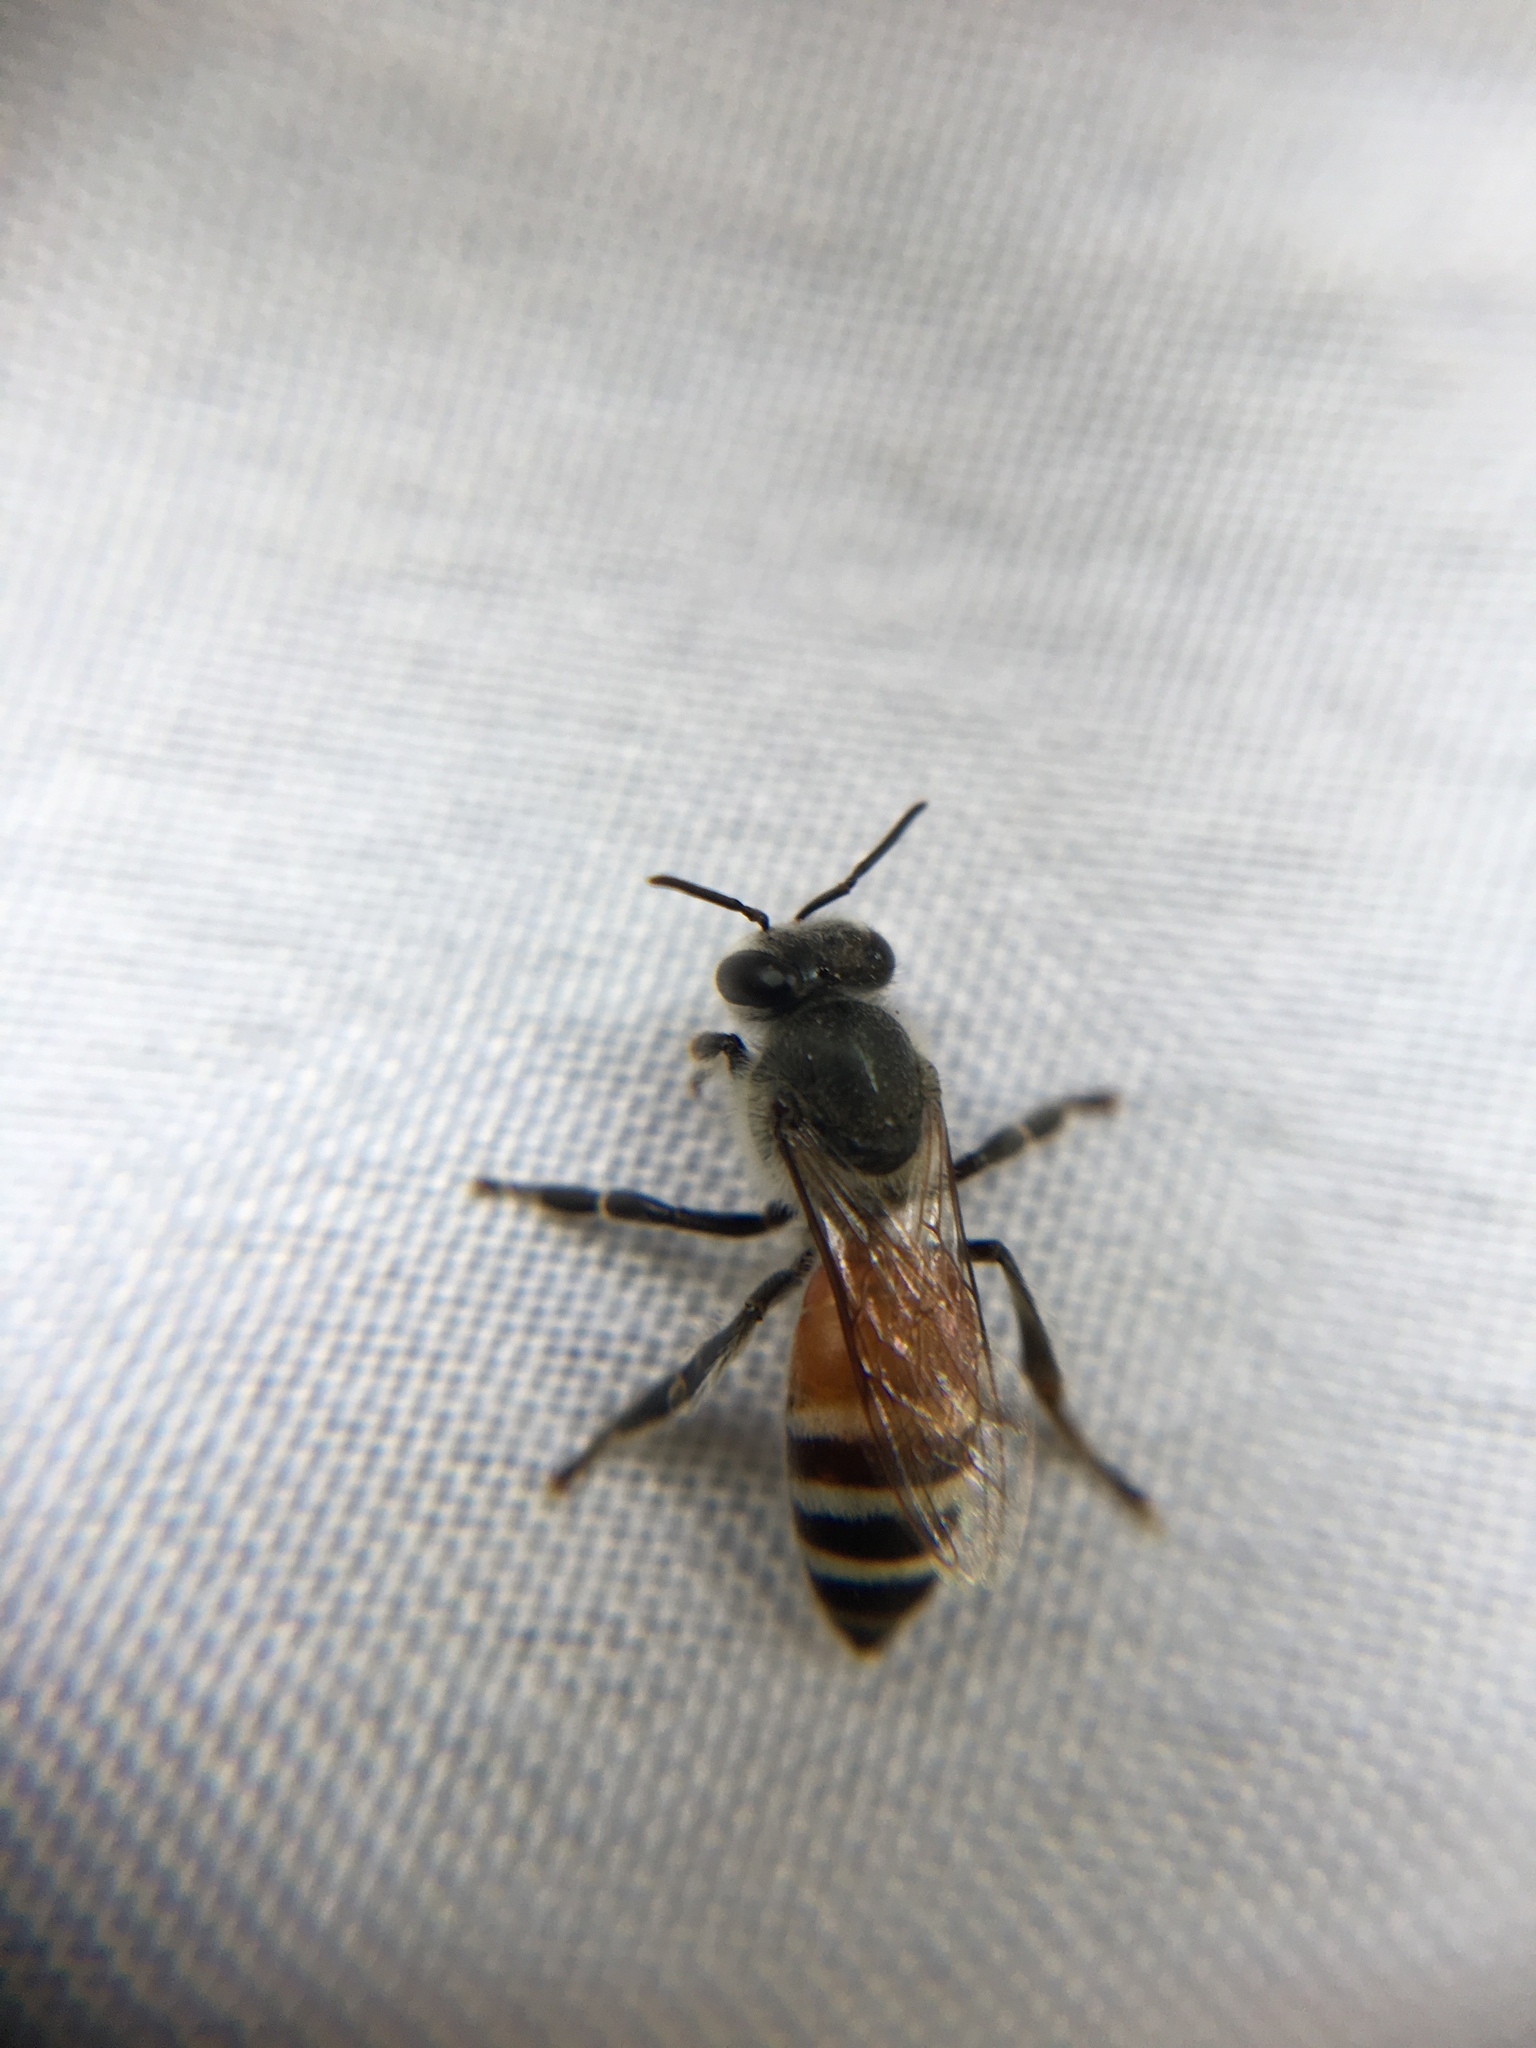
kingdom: Animalia
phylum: Arthropoda
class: Insecta
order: Hymenoptera
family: Apidae
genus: Apis
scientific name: Apis florea
